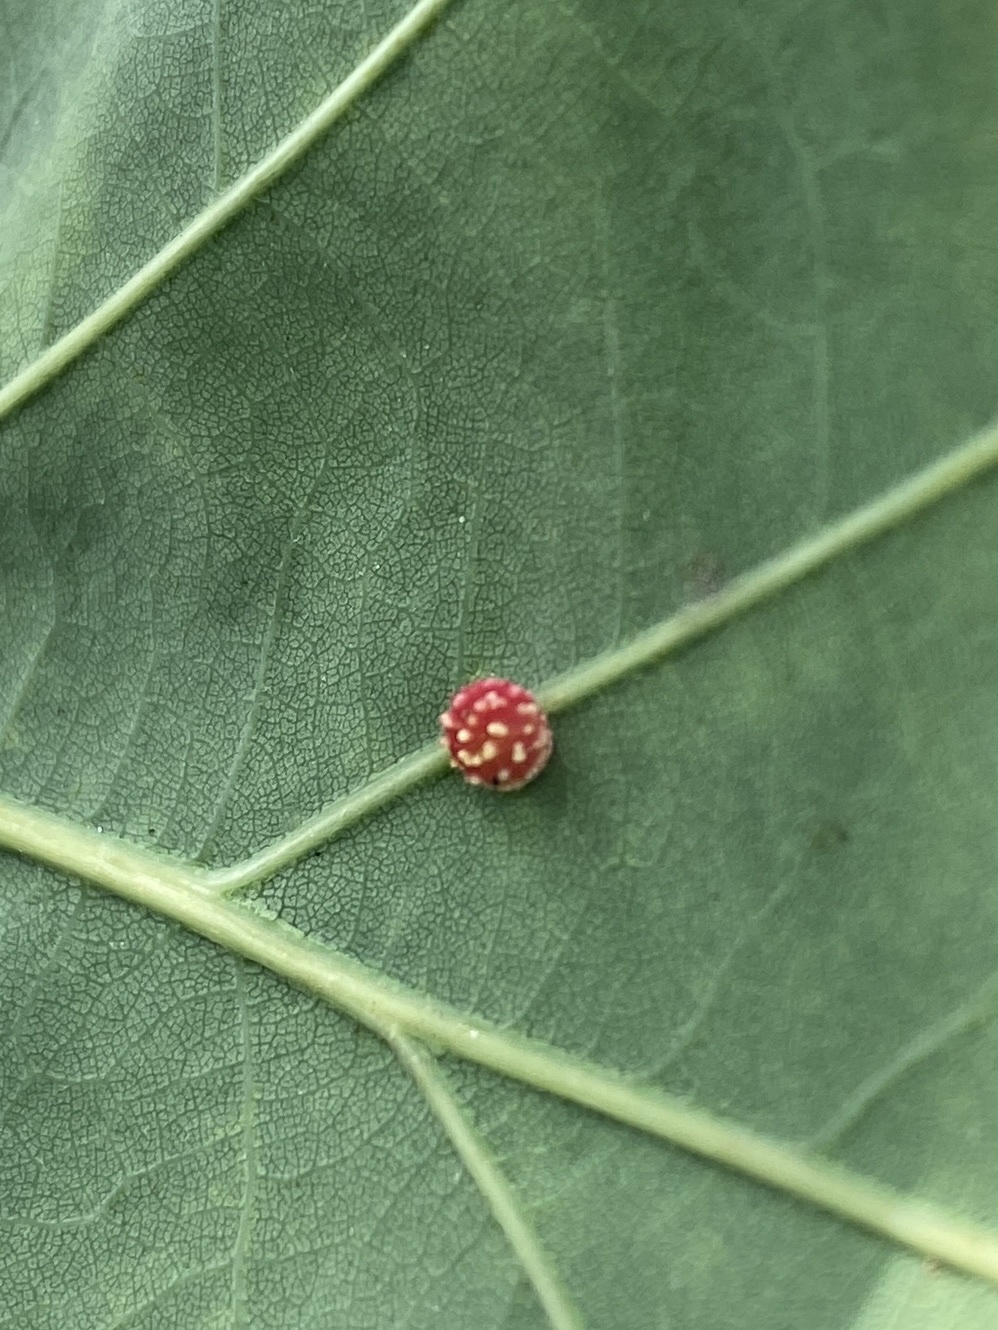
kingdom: Animalia
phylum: Arthropoda
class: Insecta
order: Hymenoptera
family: Cynipidae
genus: Cynips
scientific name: Cynips longiventris
